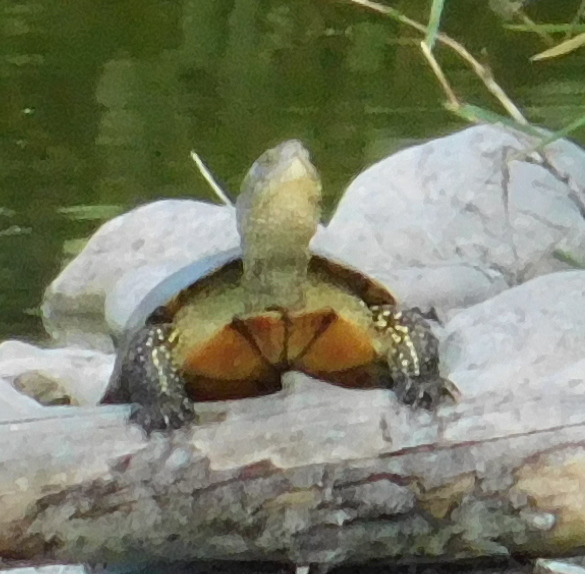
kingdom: Animalia
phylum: Chordata
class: Testudines
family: Emydidae
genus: Emys
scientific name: Emys orbicularis
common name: European pond turtle
